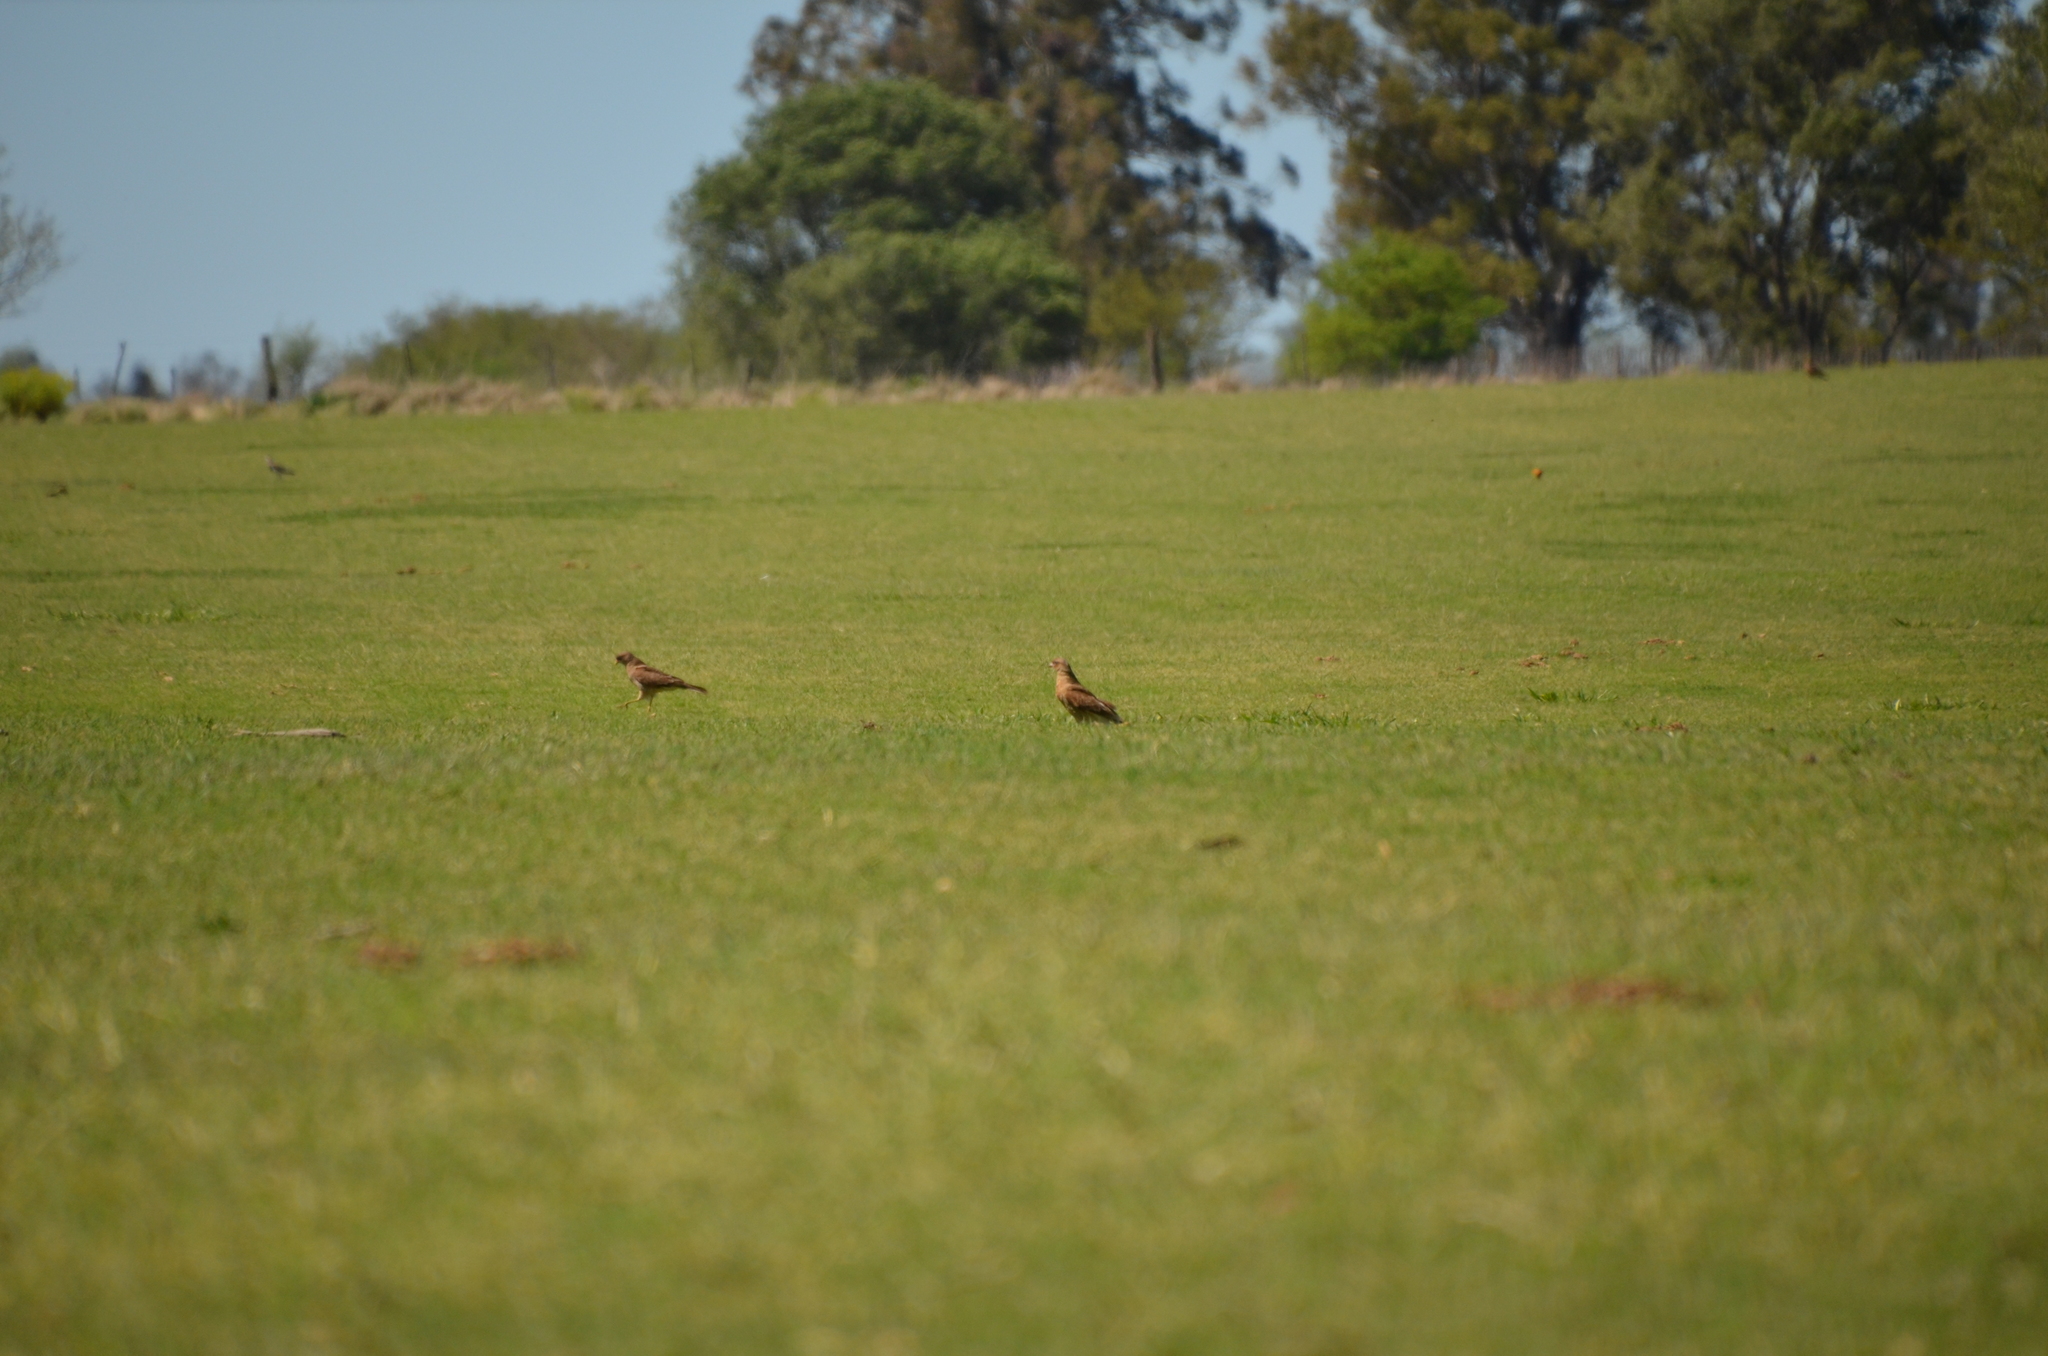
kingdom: Animalia
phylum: Chordata
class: Aves
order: Falconiformes
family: Falconidae
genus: Daptrius
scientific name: Daptrius
